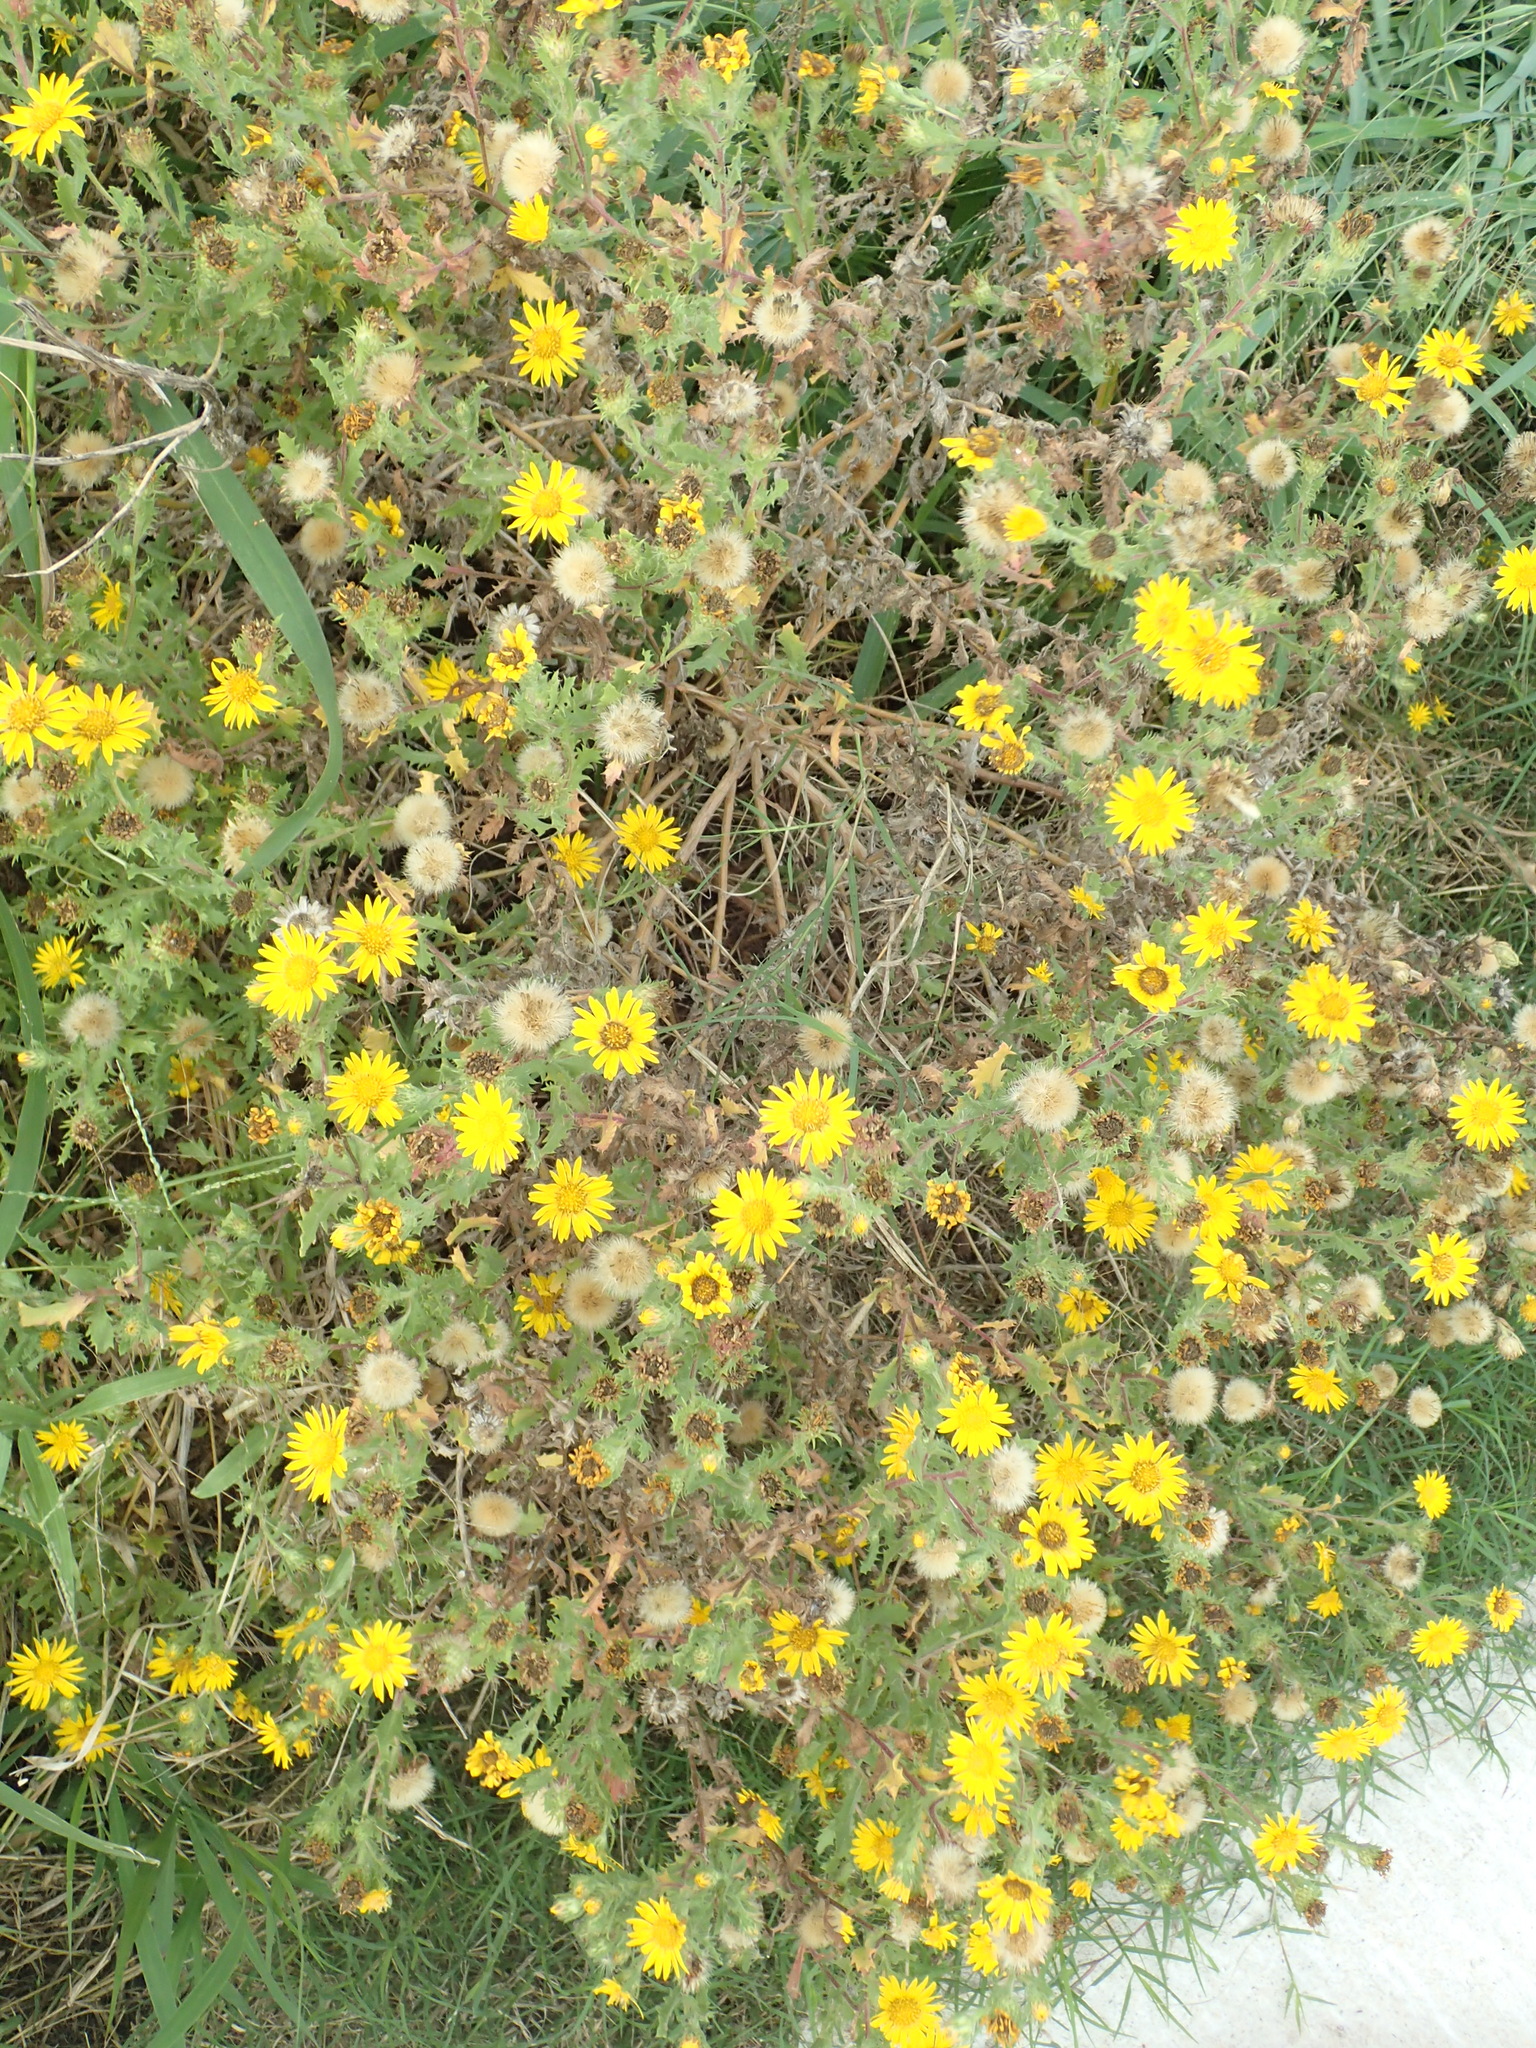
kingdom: Plantae
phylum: Tracheophyta
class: Magnoliopsida
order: Asterales
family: Asteraceae
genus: Rayjacksonia
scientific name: Rayjacksonia phyllocephala
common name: Gulf coast camphor daisy
